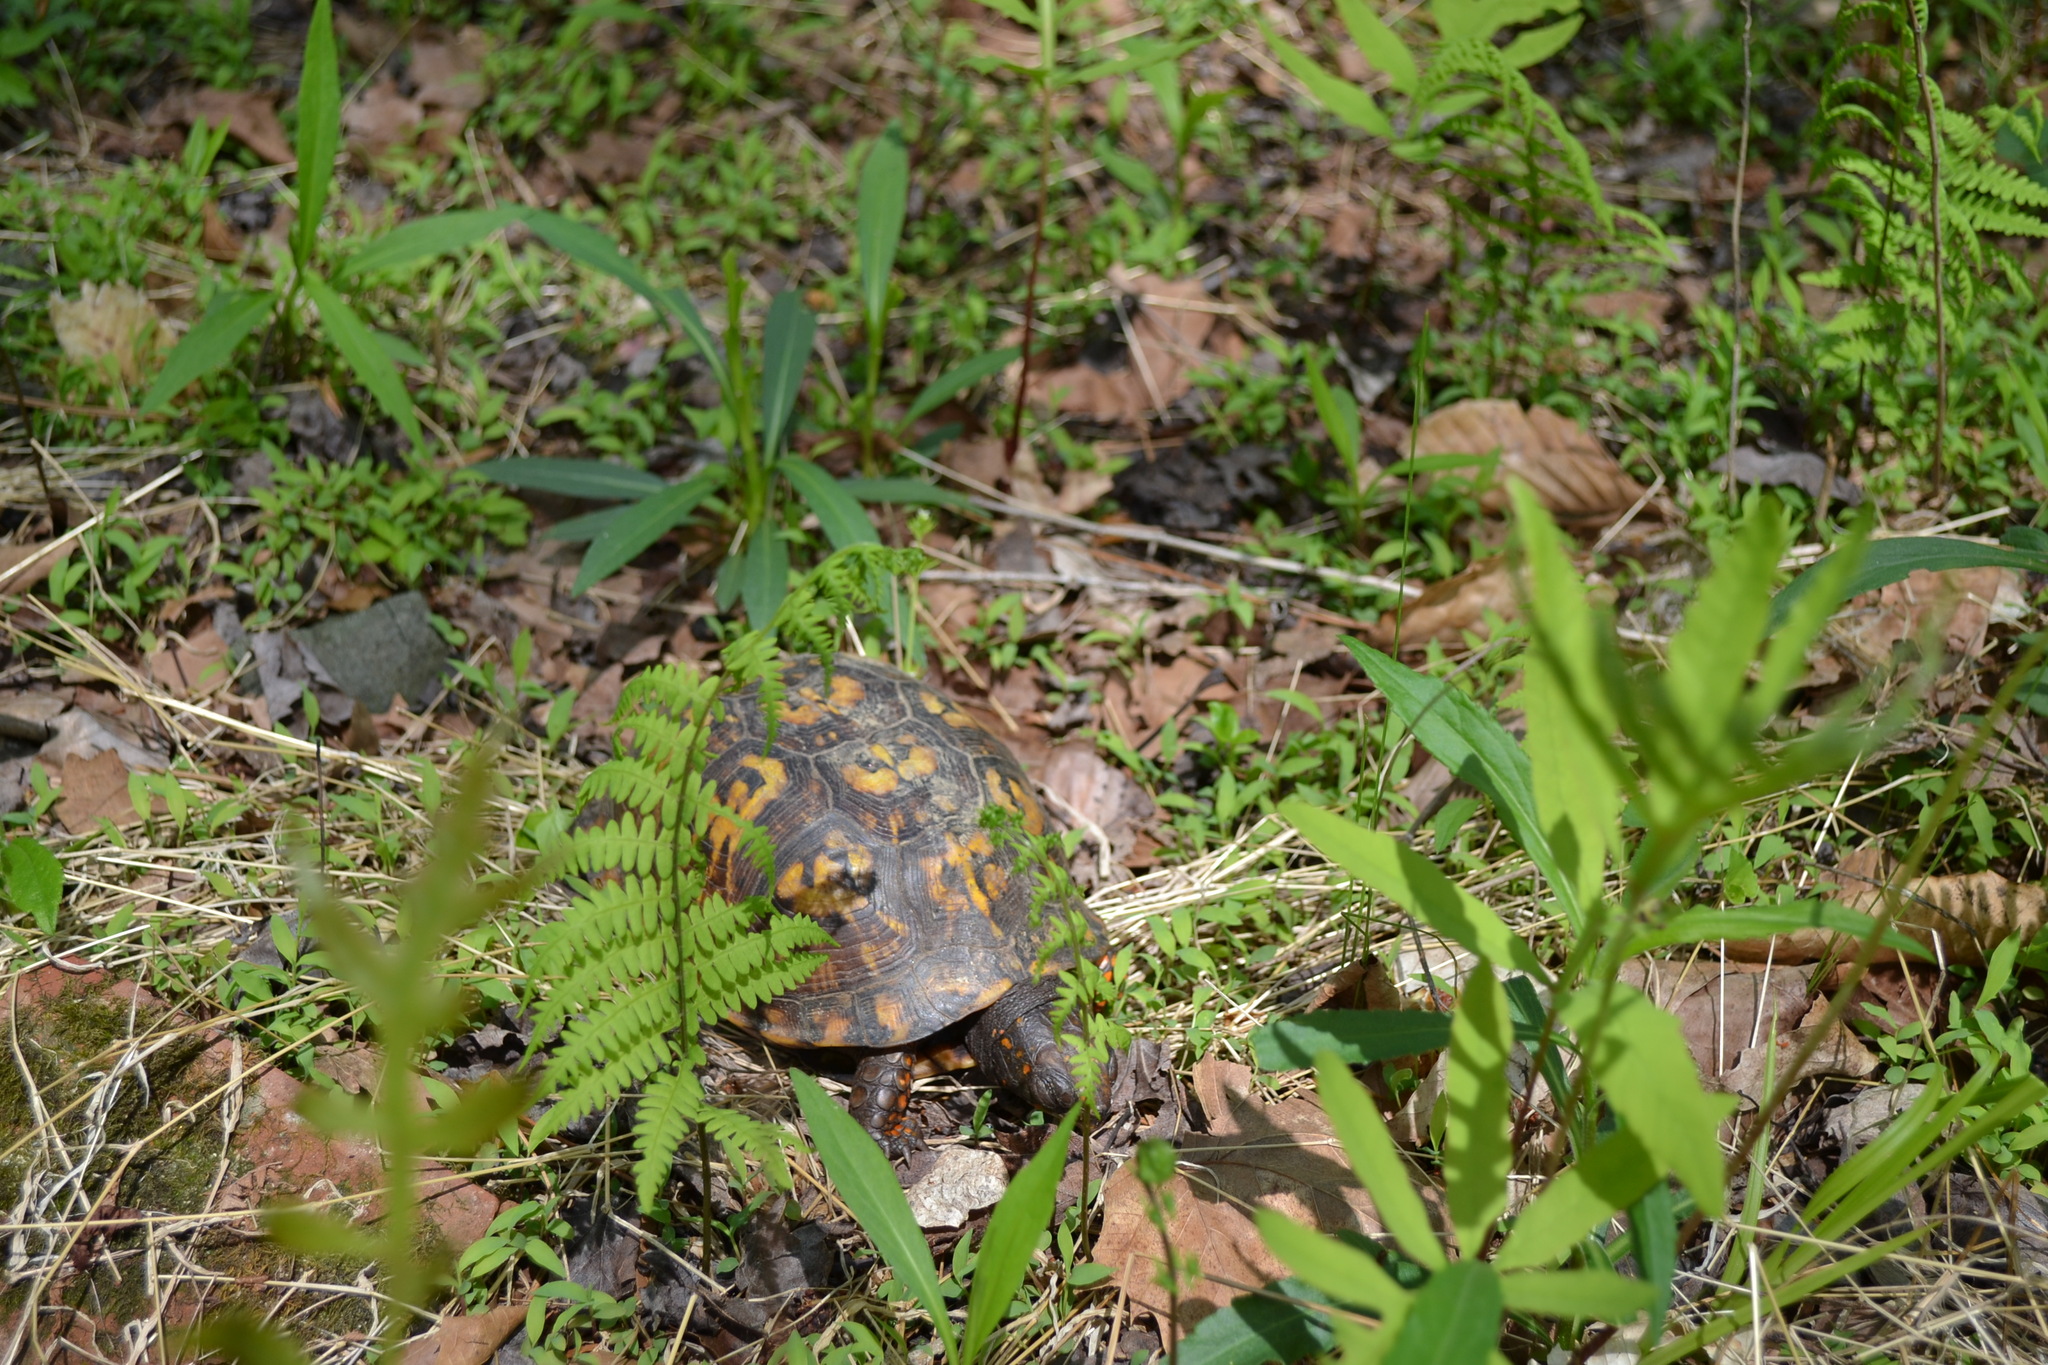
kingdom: Animalia
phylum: Chordata
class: Testudines
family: Emydidae
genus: Terrapene
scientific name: Terrapene carolina
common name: Common box turtle
